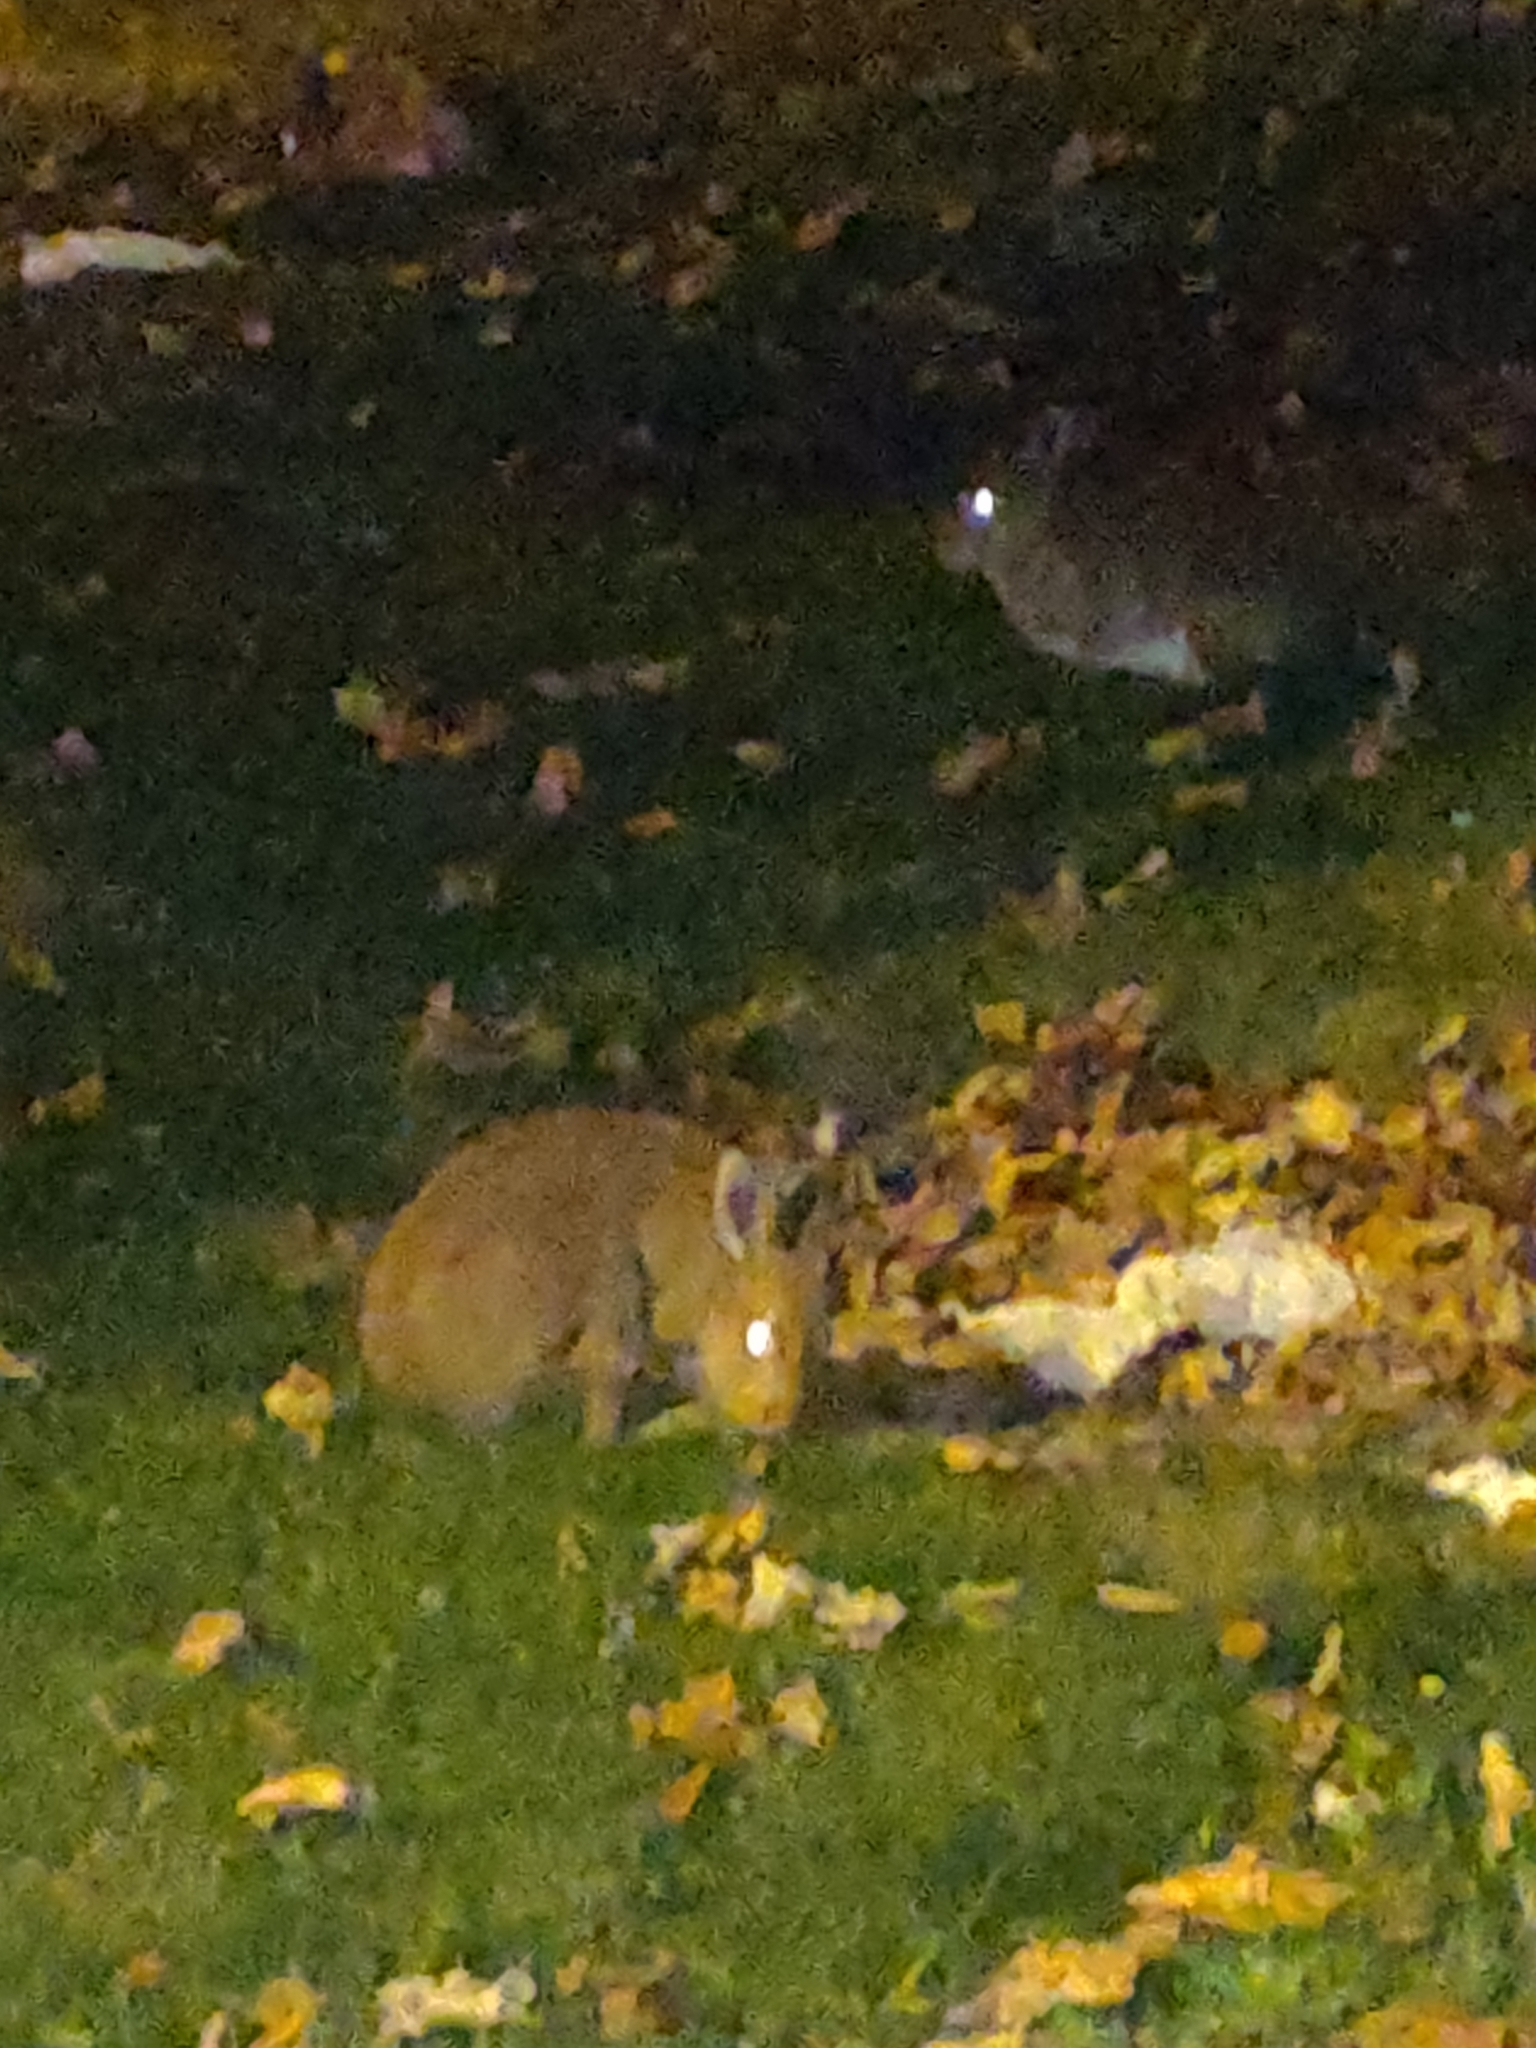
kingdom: Animalia
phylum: Chordata
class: Mammalia
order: Lagomorpha
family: Leporidae
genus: Lepus
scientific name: Lepus timidus
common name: Mountain hare
